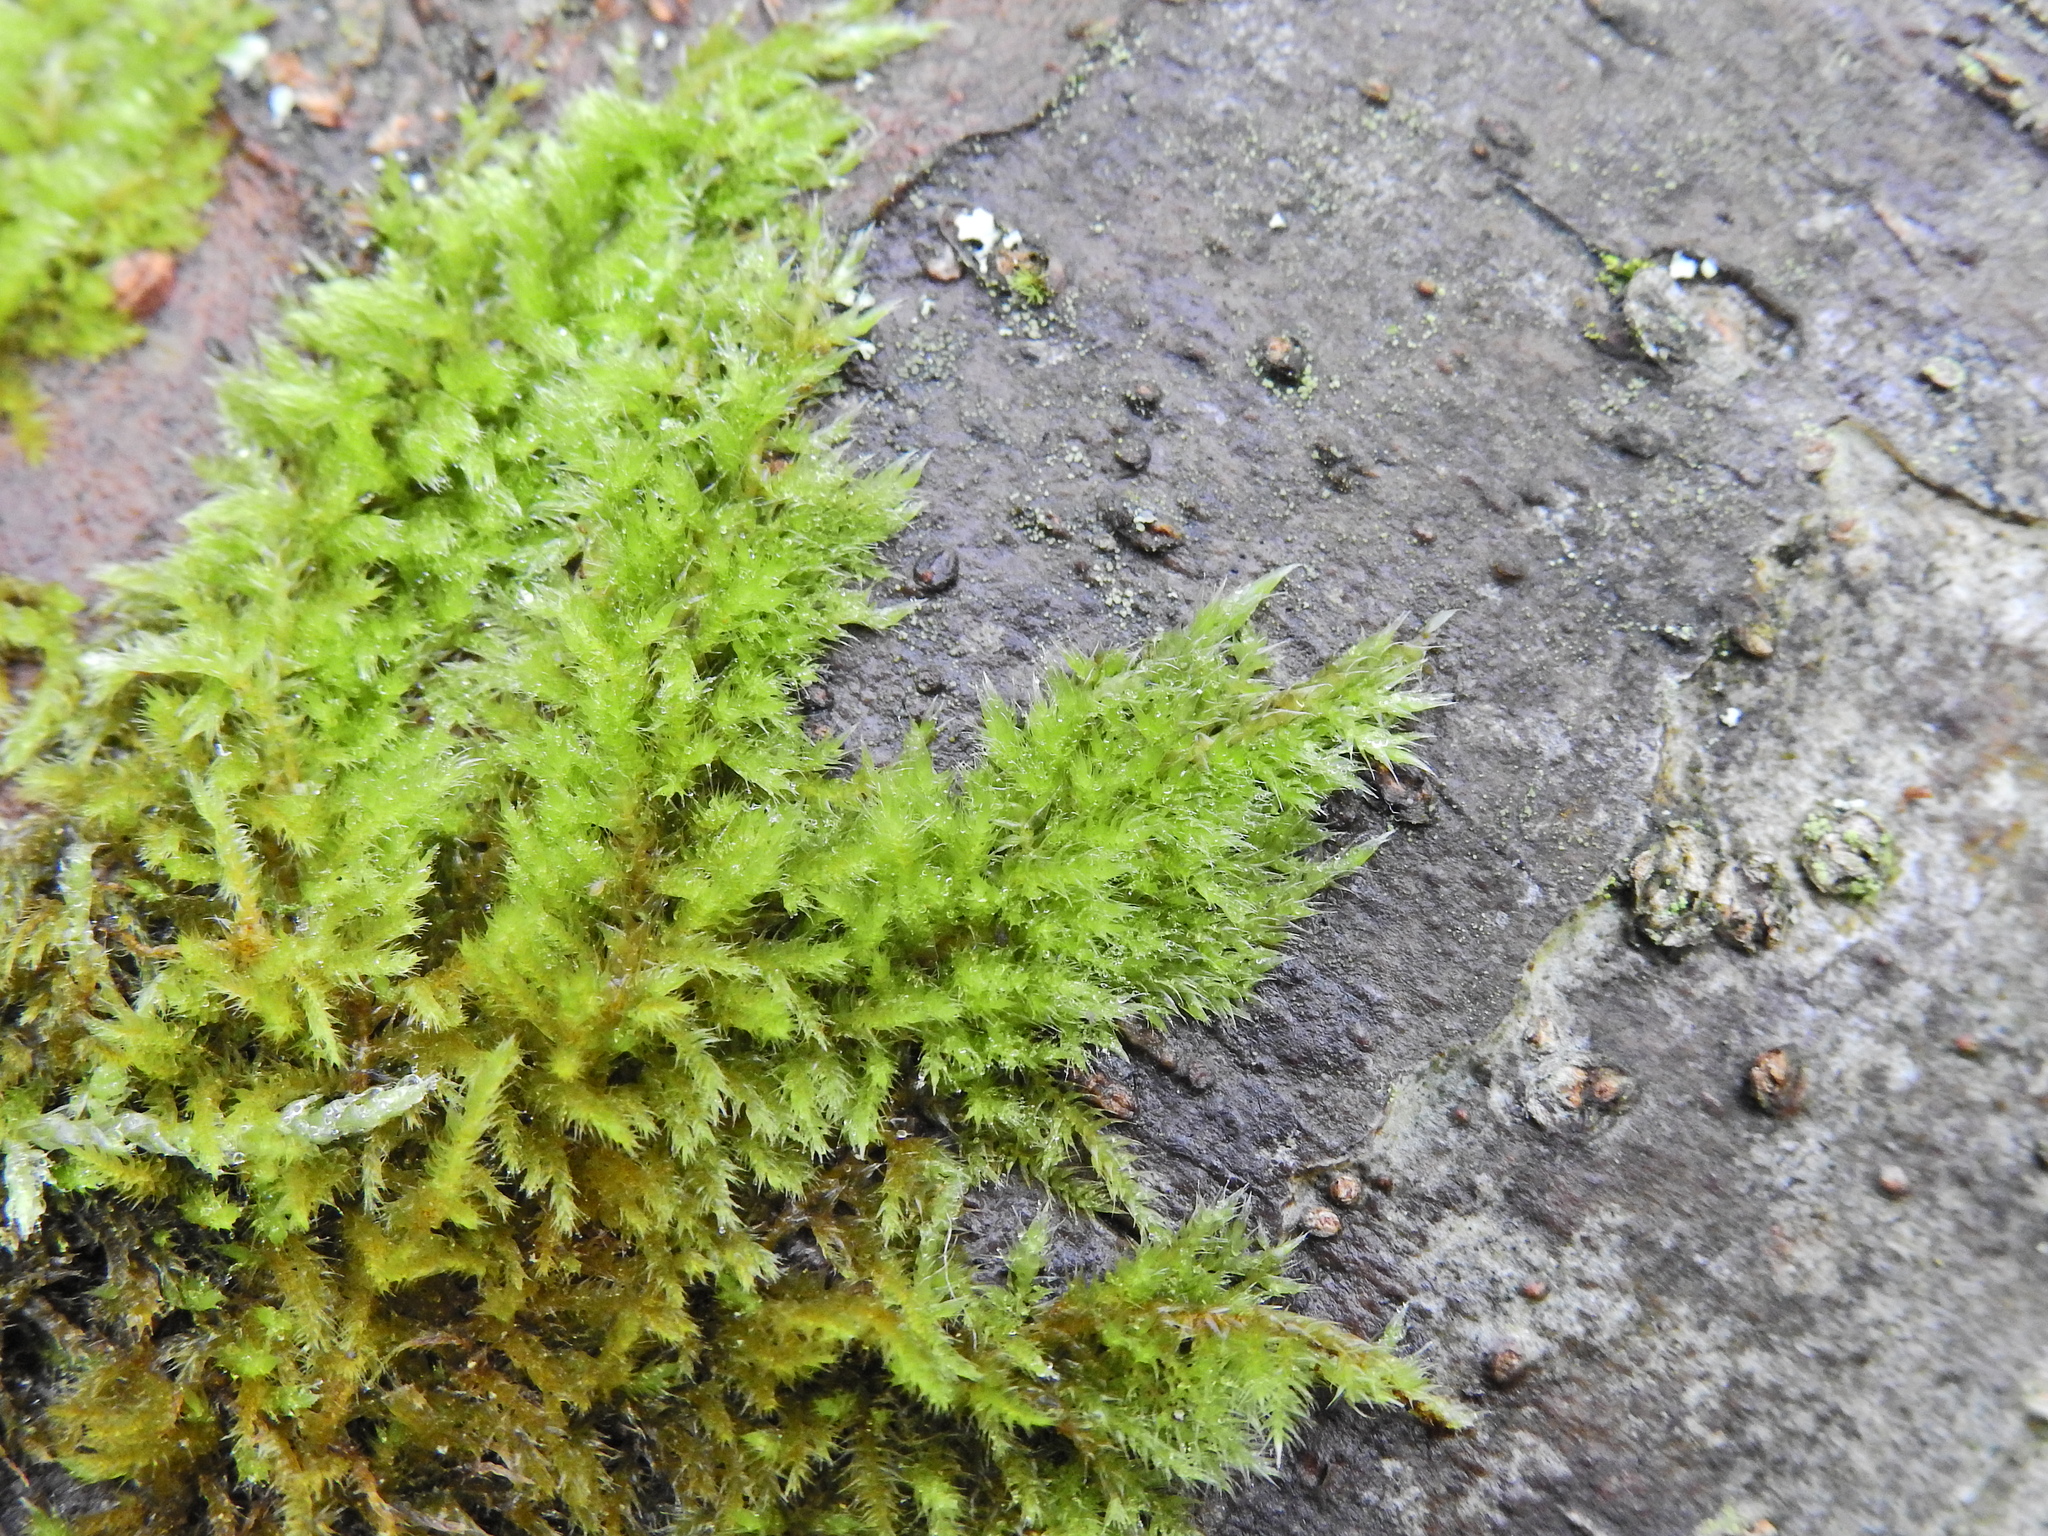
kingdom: Plantae
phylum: Bryophyta
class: Bryopsida
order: Hypnales
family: Brachytheciaceae
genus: Homalothecium
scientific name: Homalothecium sericeum
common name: Silky wall feather-moss
